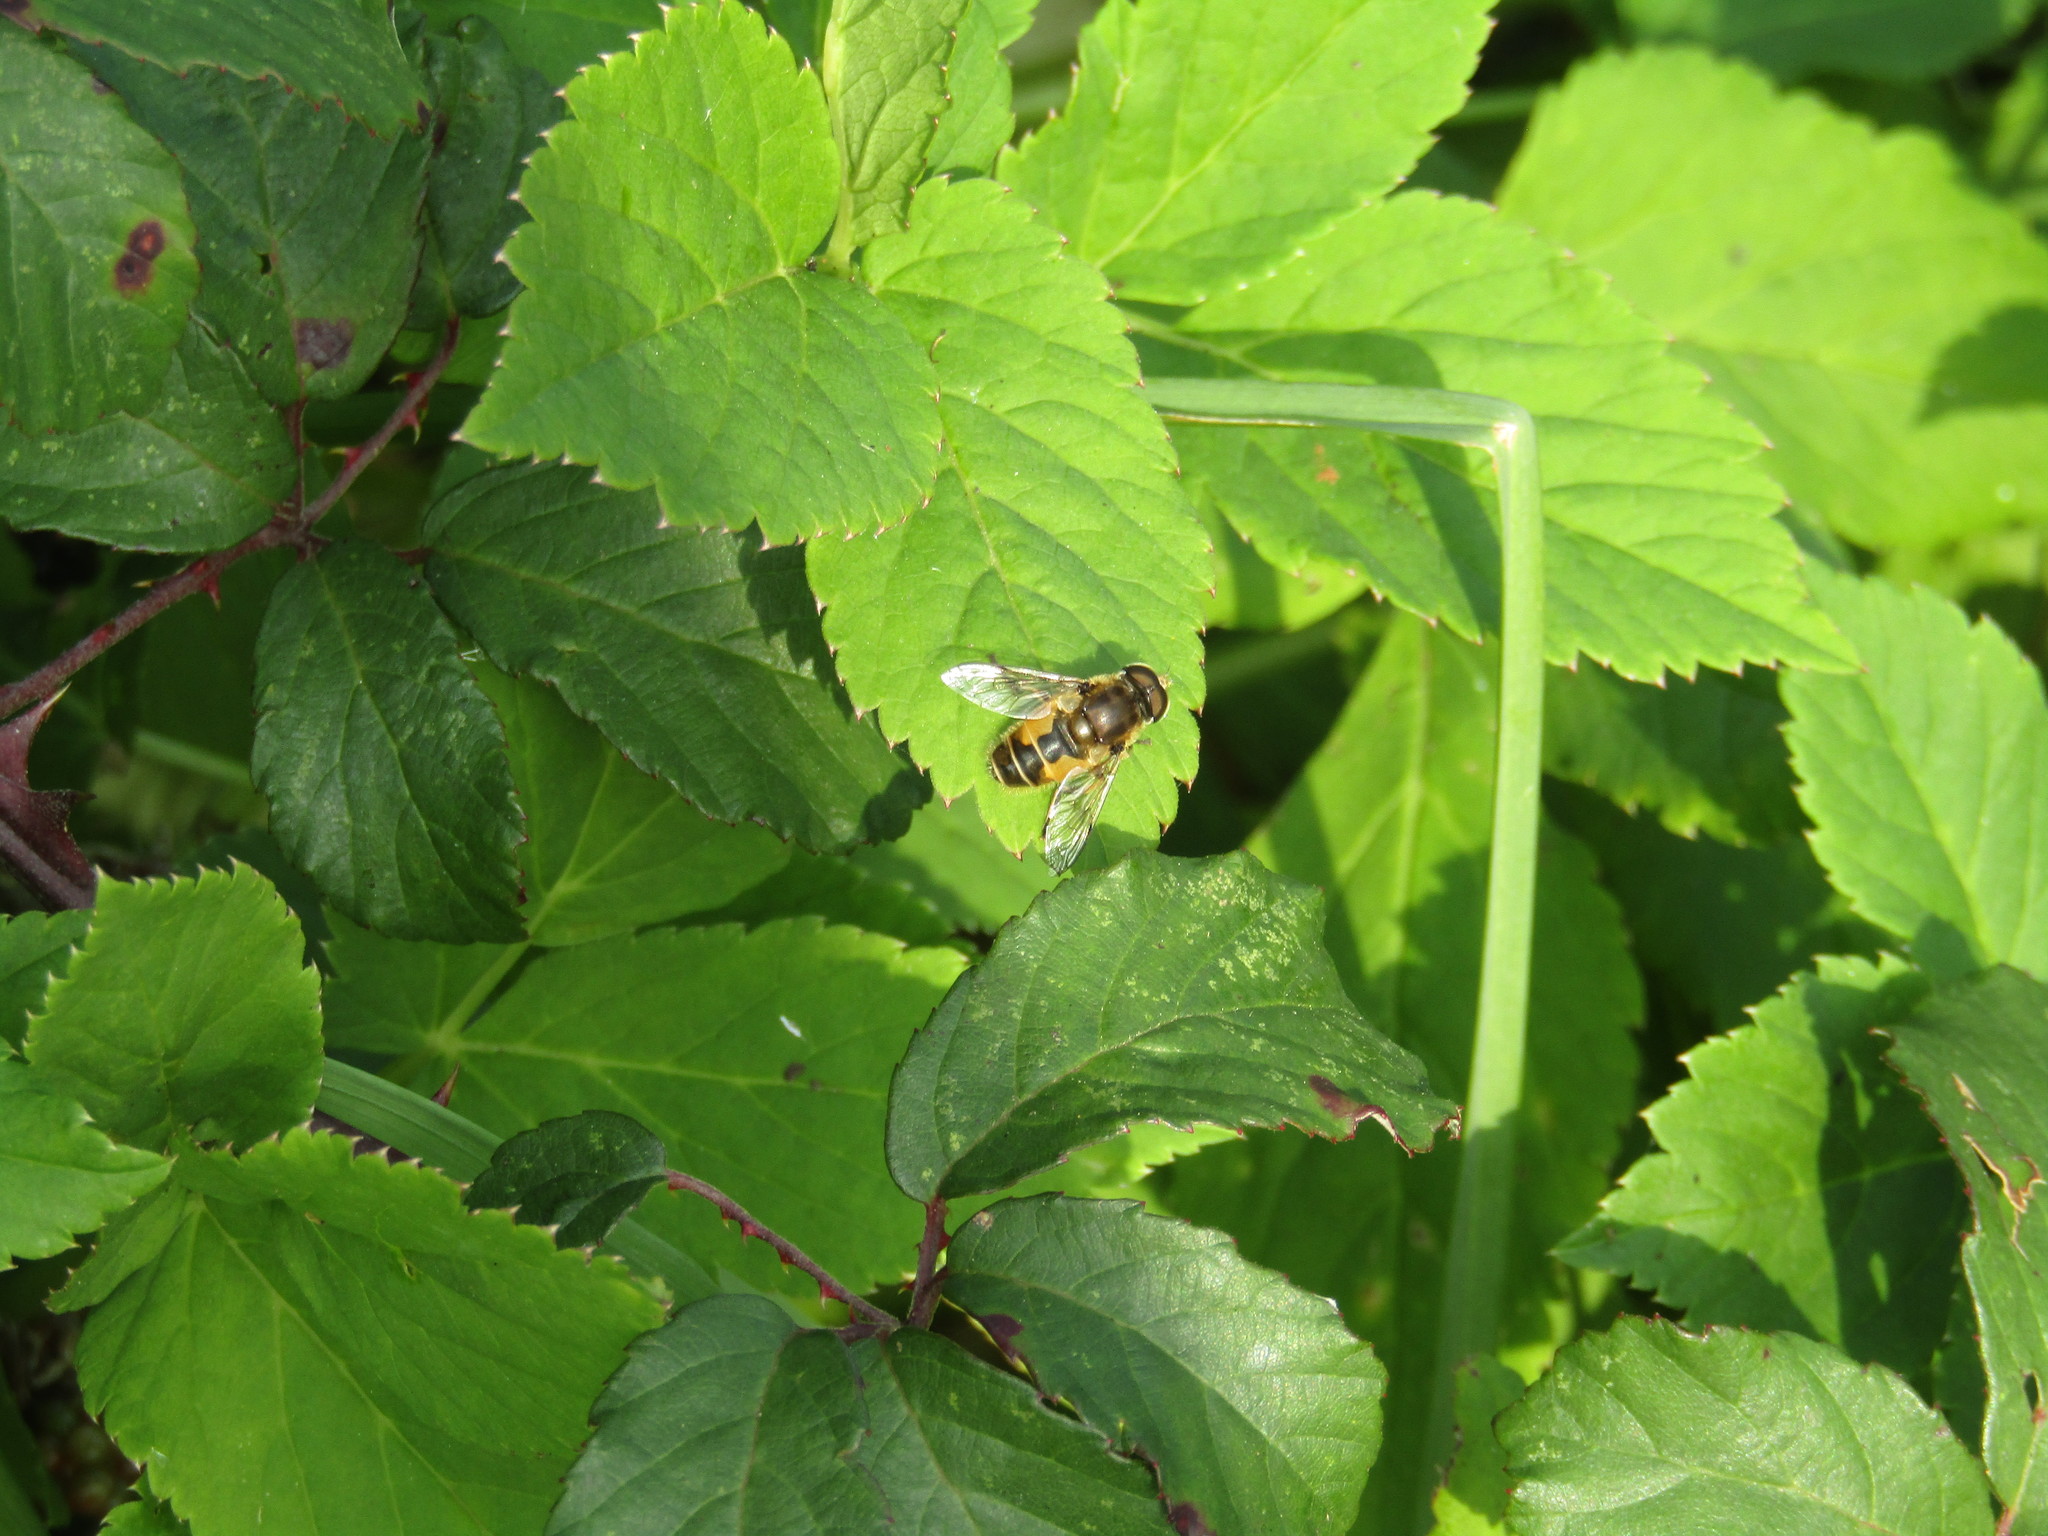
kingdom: Animalia
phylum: Arthropoda
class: Insecta
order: Diptera
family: Syrphidae
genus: Eristalis
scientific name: Eristalis arbustorum
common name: Hover fly
